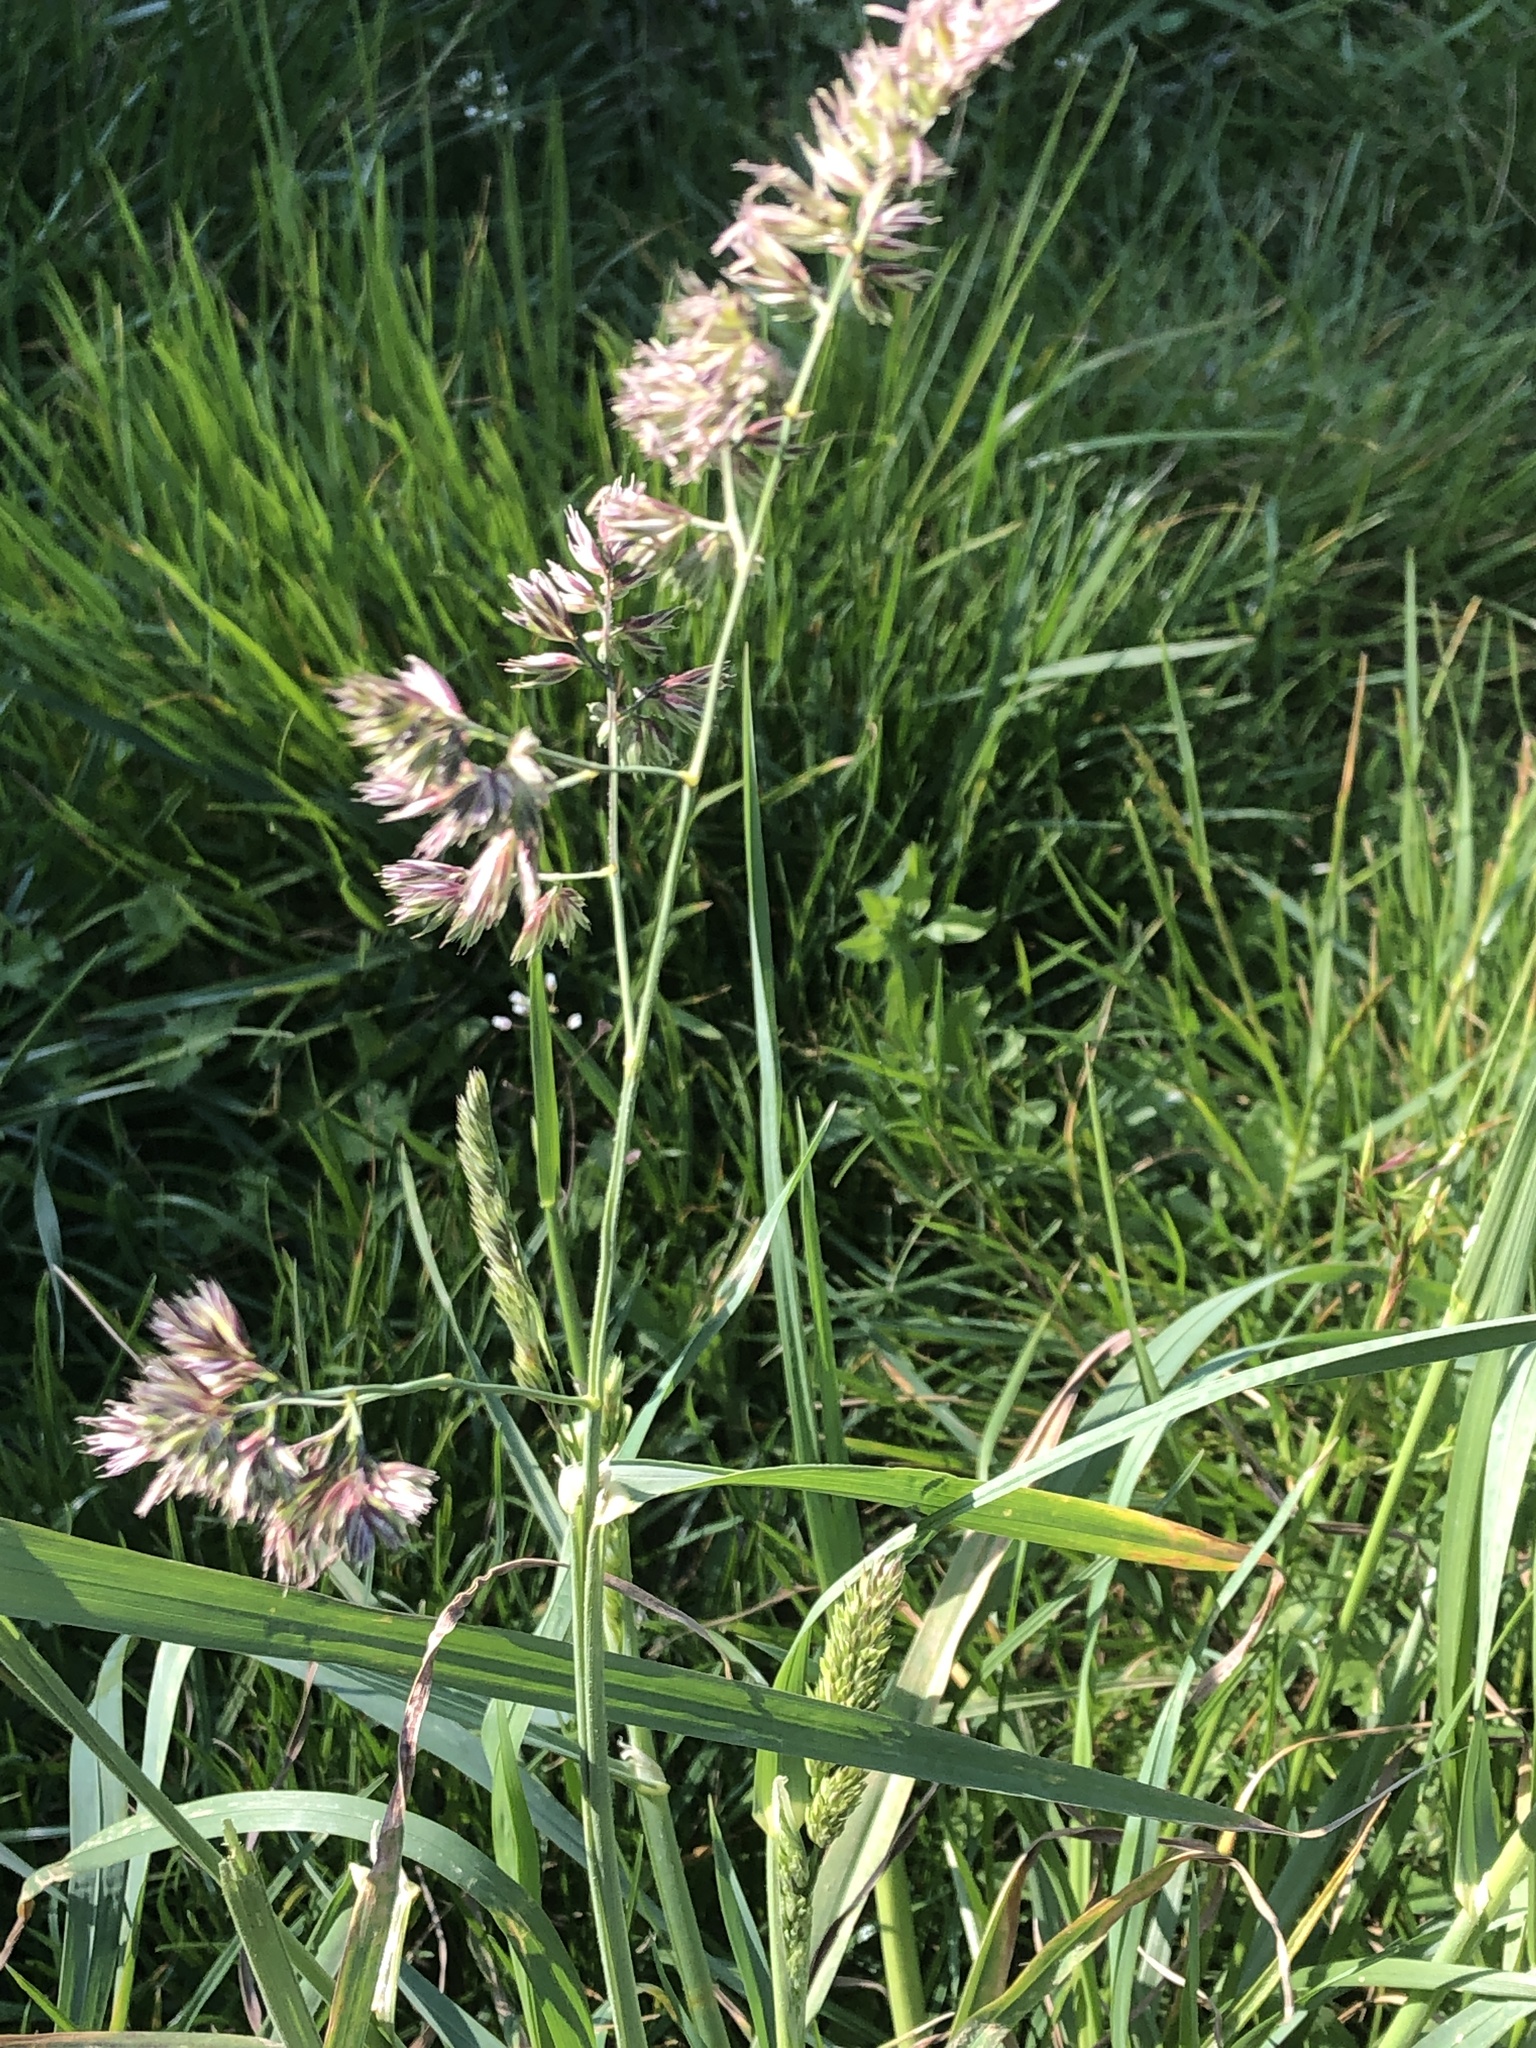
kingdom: Plantae
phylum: Tracheophyta
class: Liliopsida
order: Poales
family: Poaceae
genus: Dactylis
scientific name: Dactylis glomerata
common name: Orchardgrass
